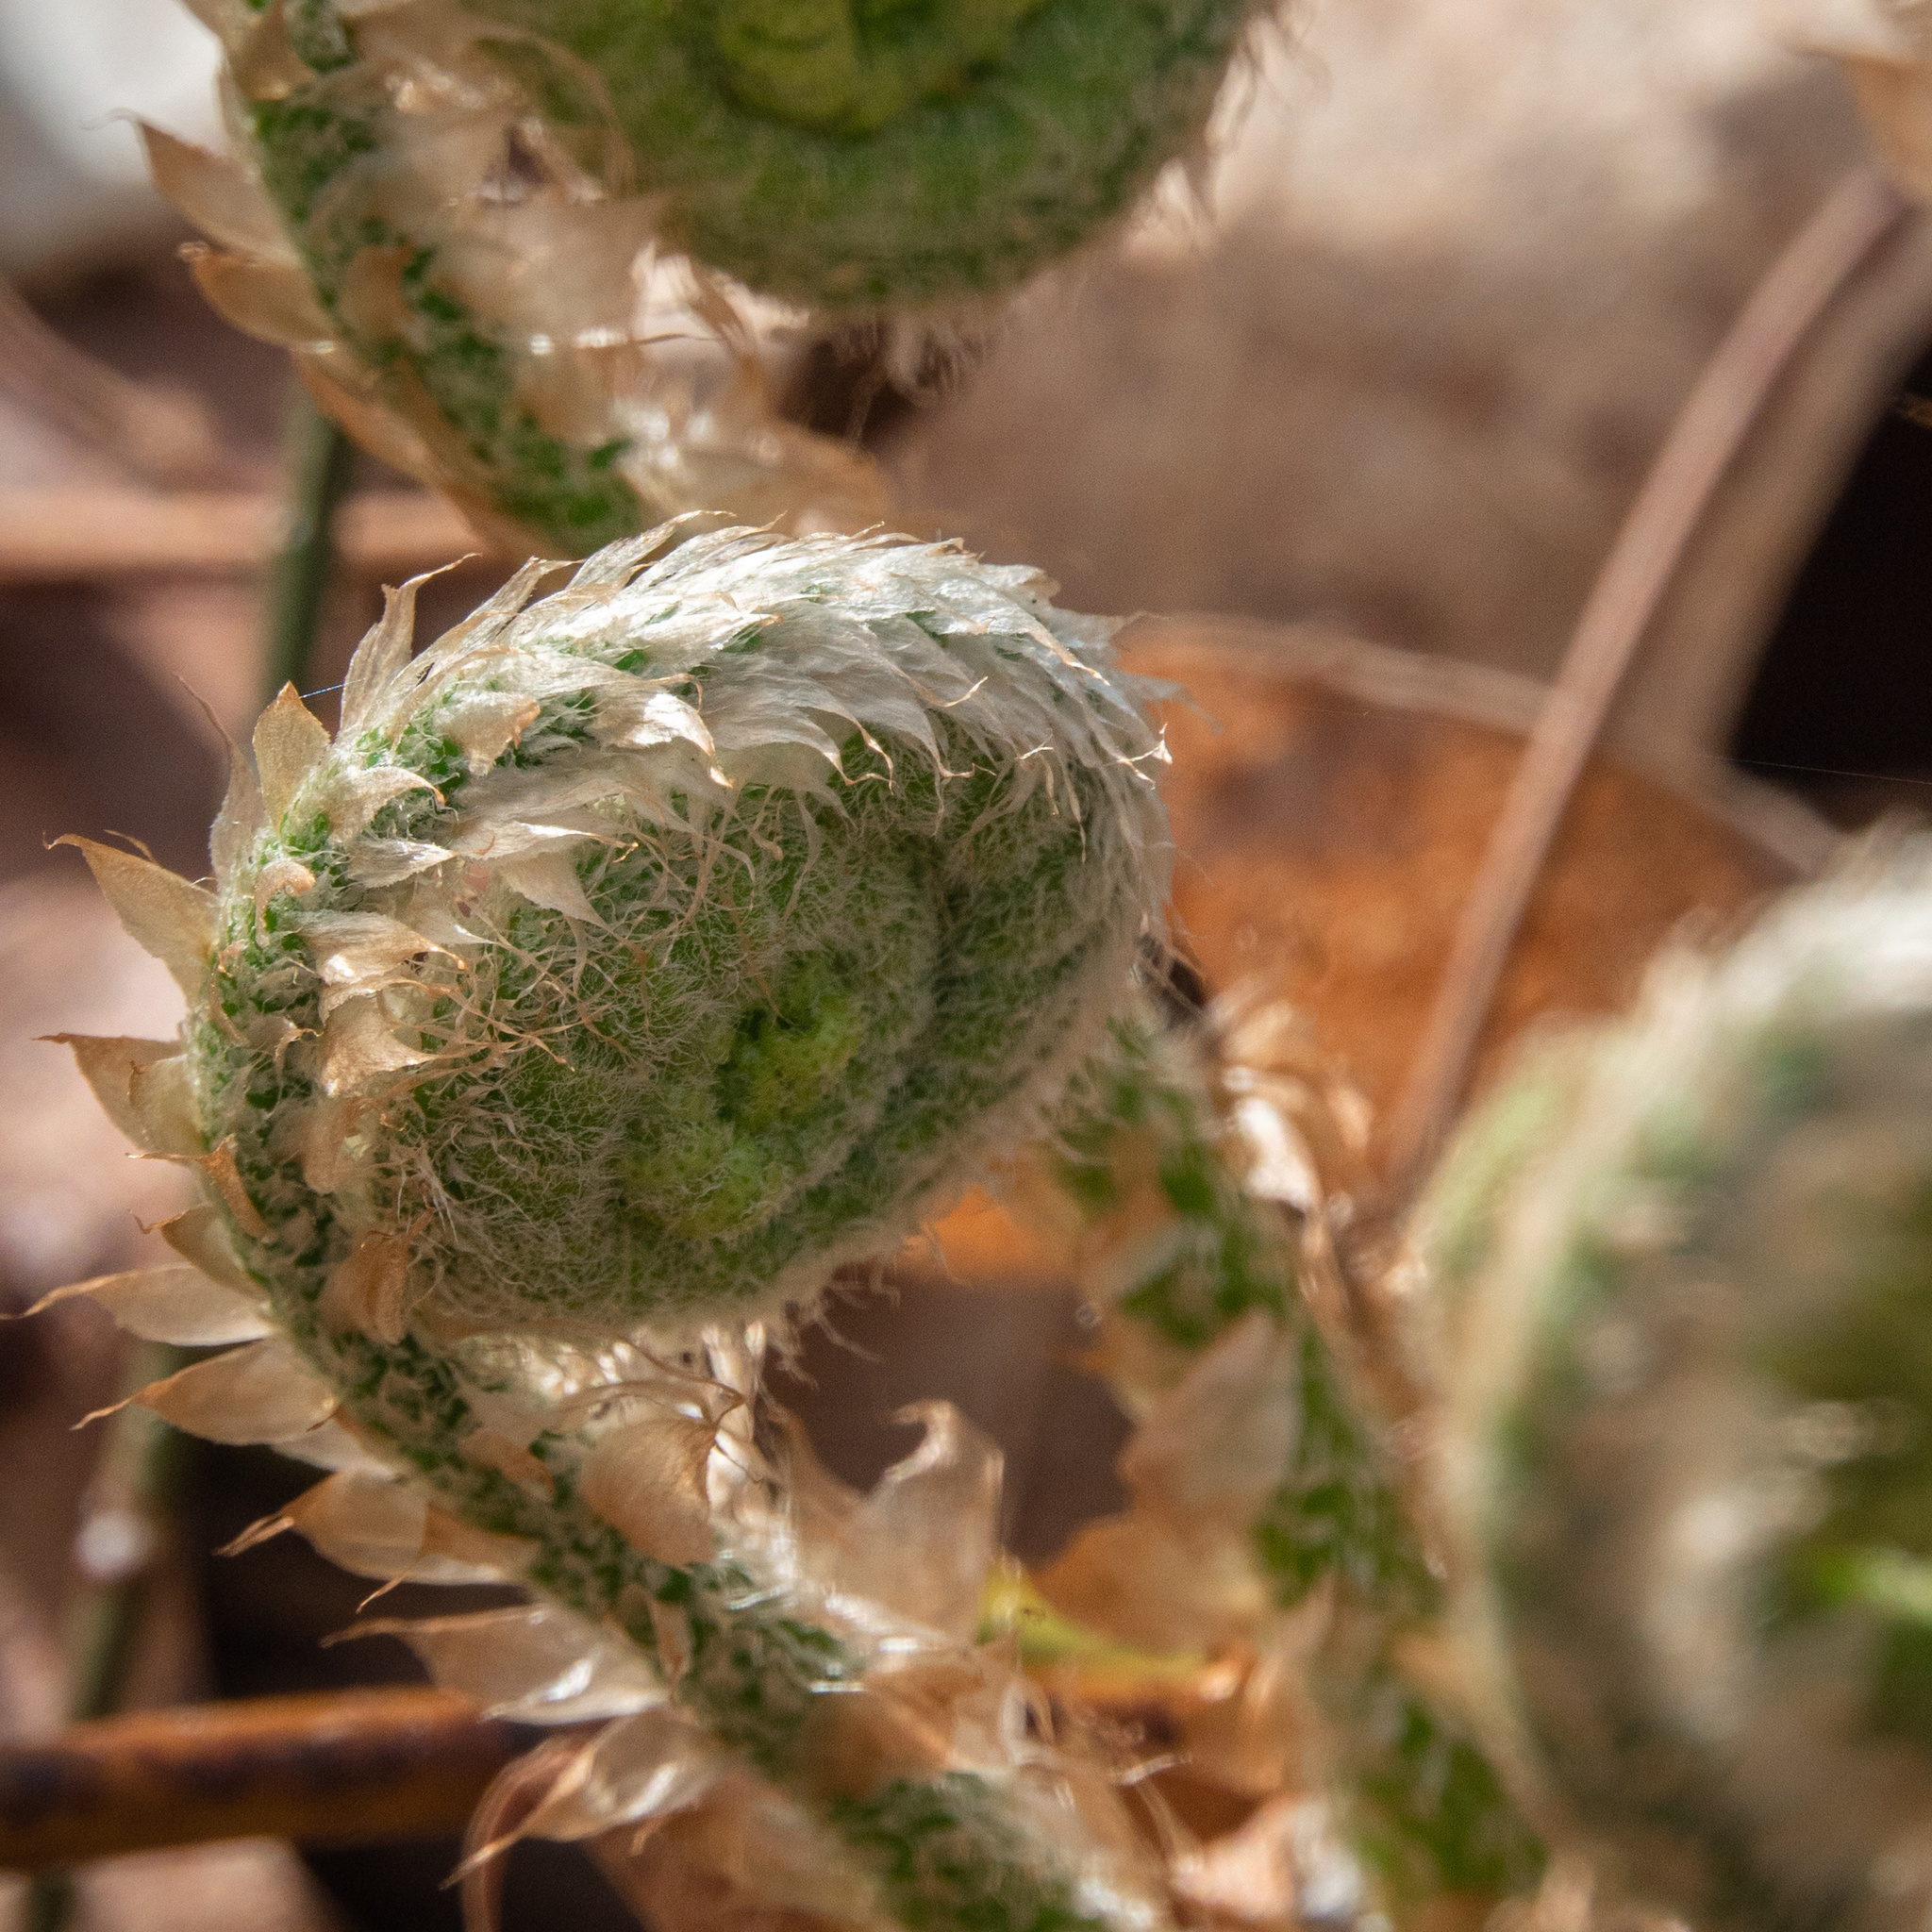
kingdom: Plantae
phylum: Tracheophyta
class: Polypodiopsida
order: Polypodiales
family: Dryopteridaceae
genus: Polystichum
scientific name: Polystichum acrostichoides
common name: Christmas fern
